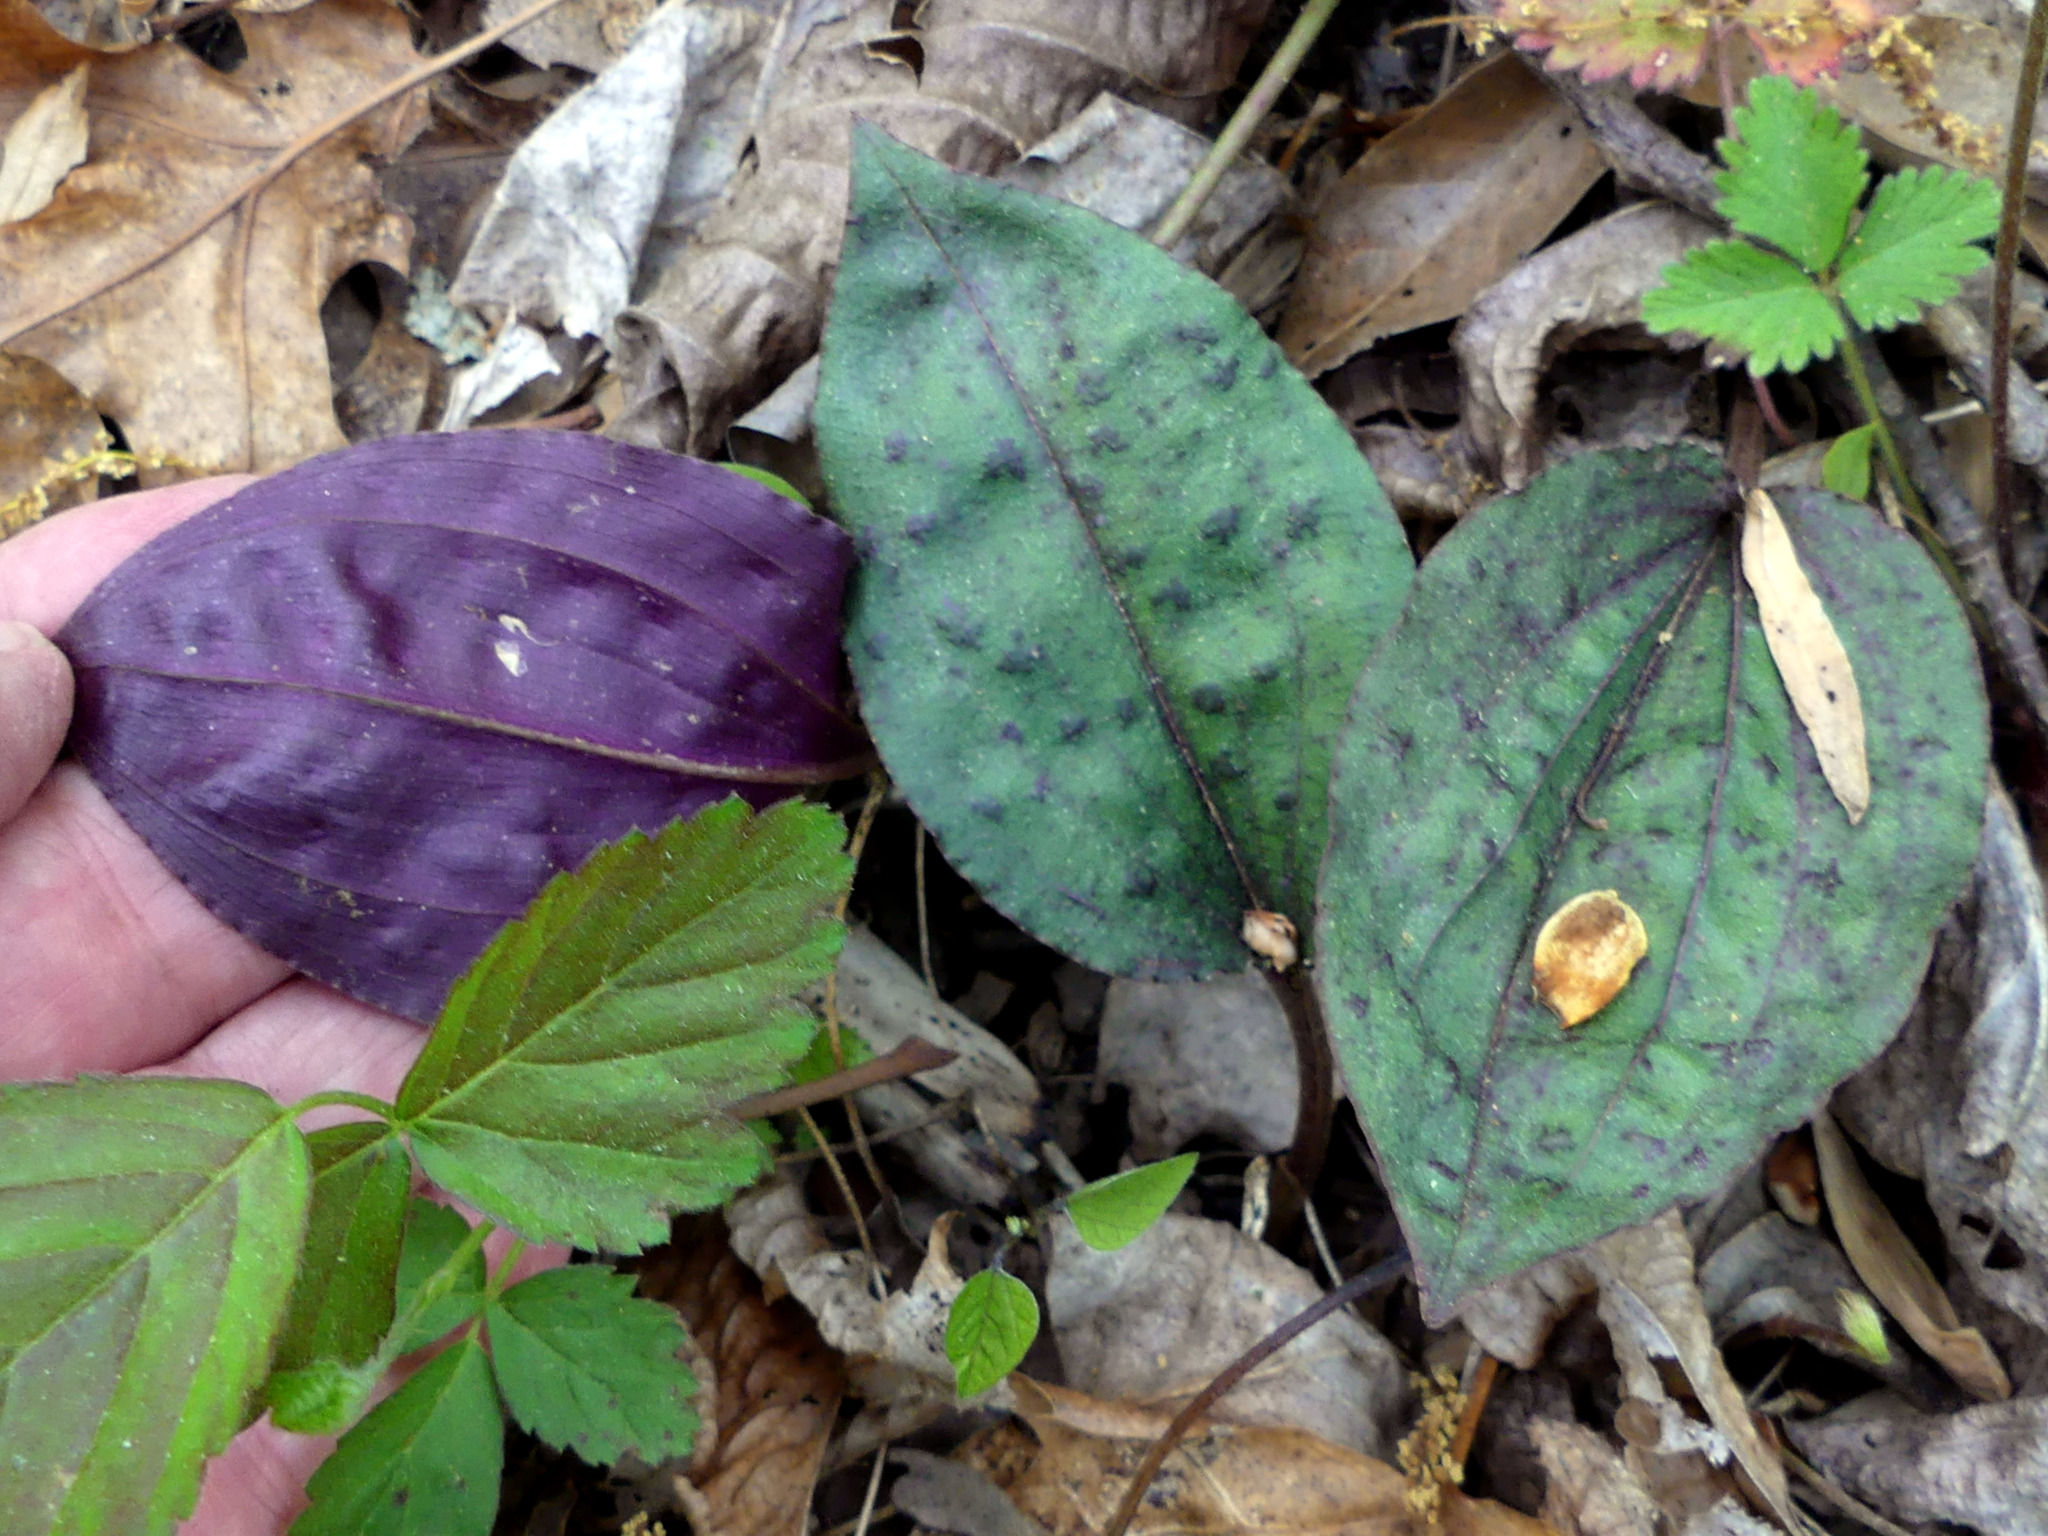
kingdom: Plantae
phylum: Tracheophyta
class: Liliopsida
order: Asparagales
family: Orchidaceae
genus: Tipularia
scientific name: Tipularia discolor
